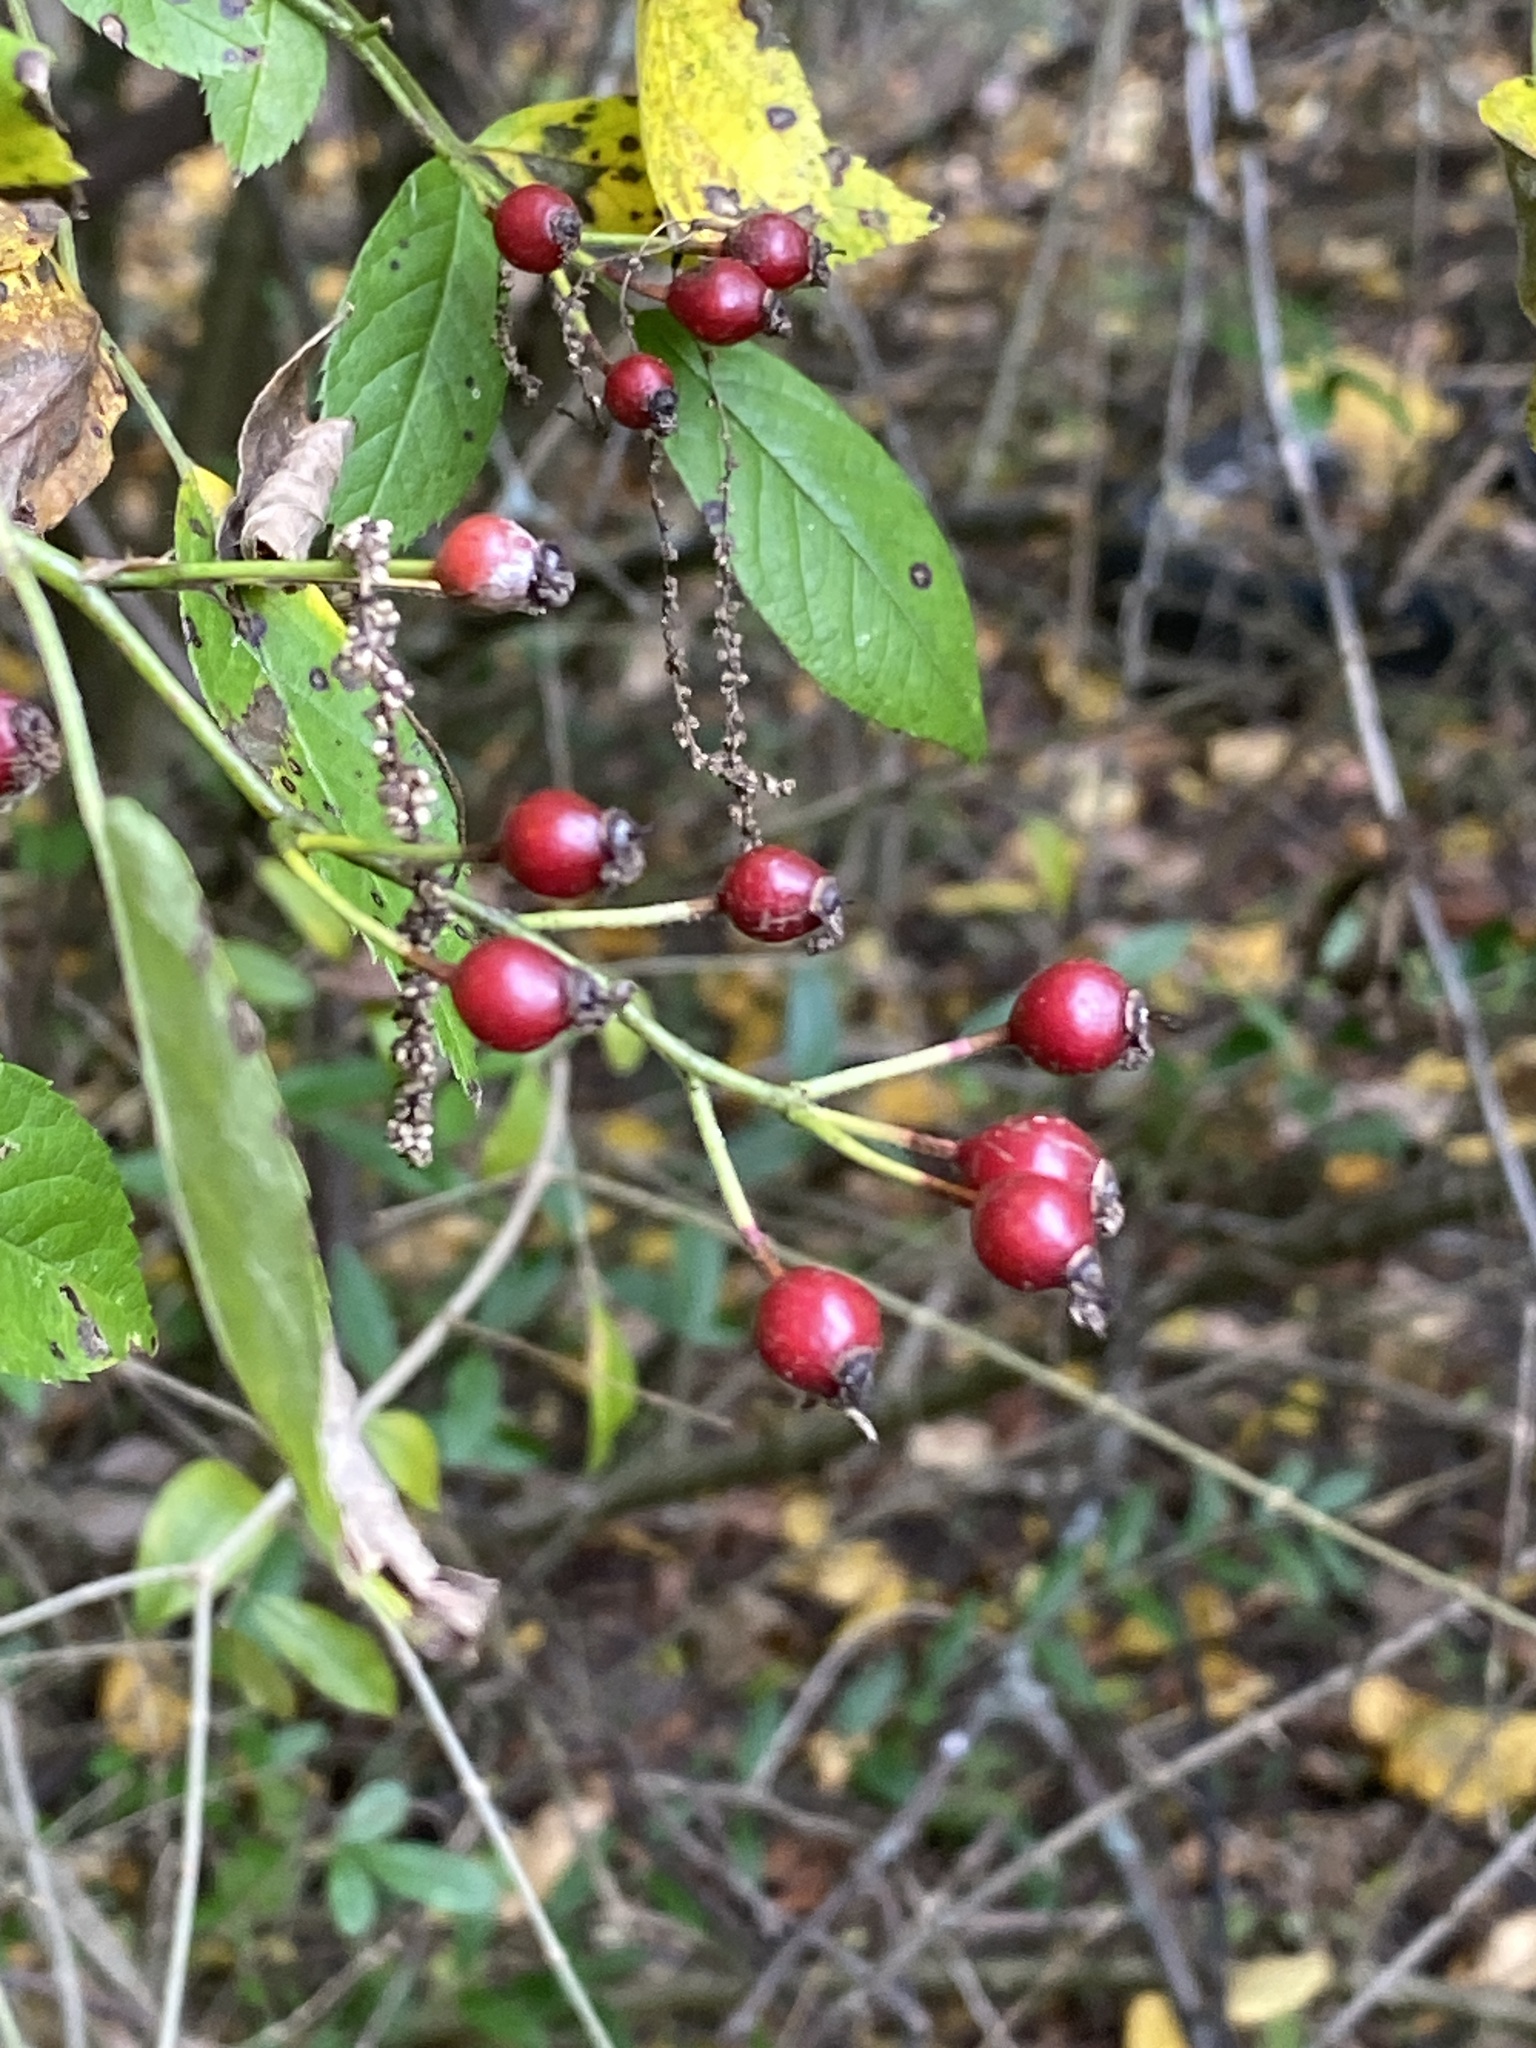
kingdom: Plantae
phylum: Tracheophyta
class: Magnoliopsida
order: Rosales
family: Rosaceae
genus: Rosa
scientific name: Rosa multiflora
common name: Multiflora rose
